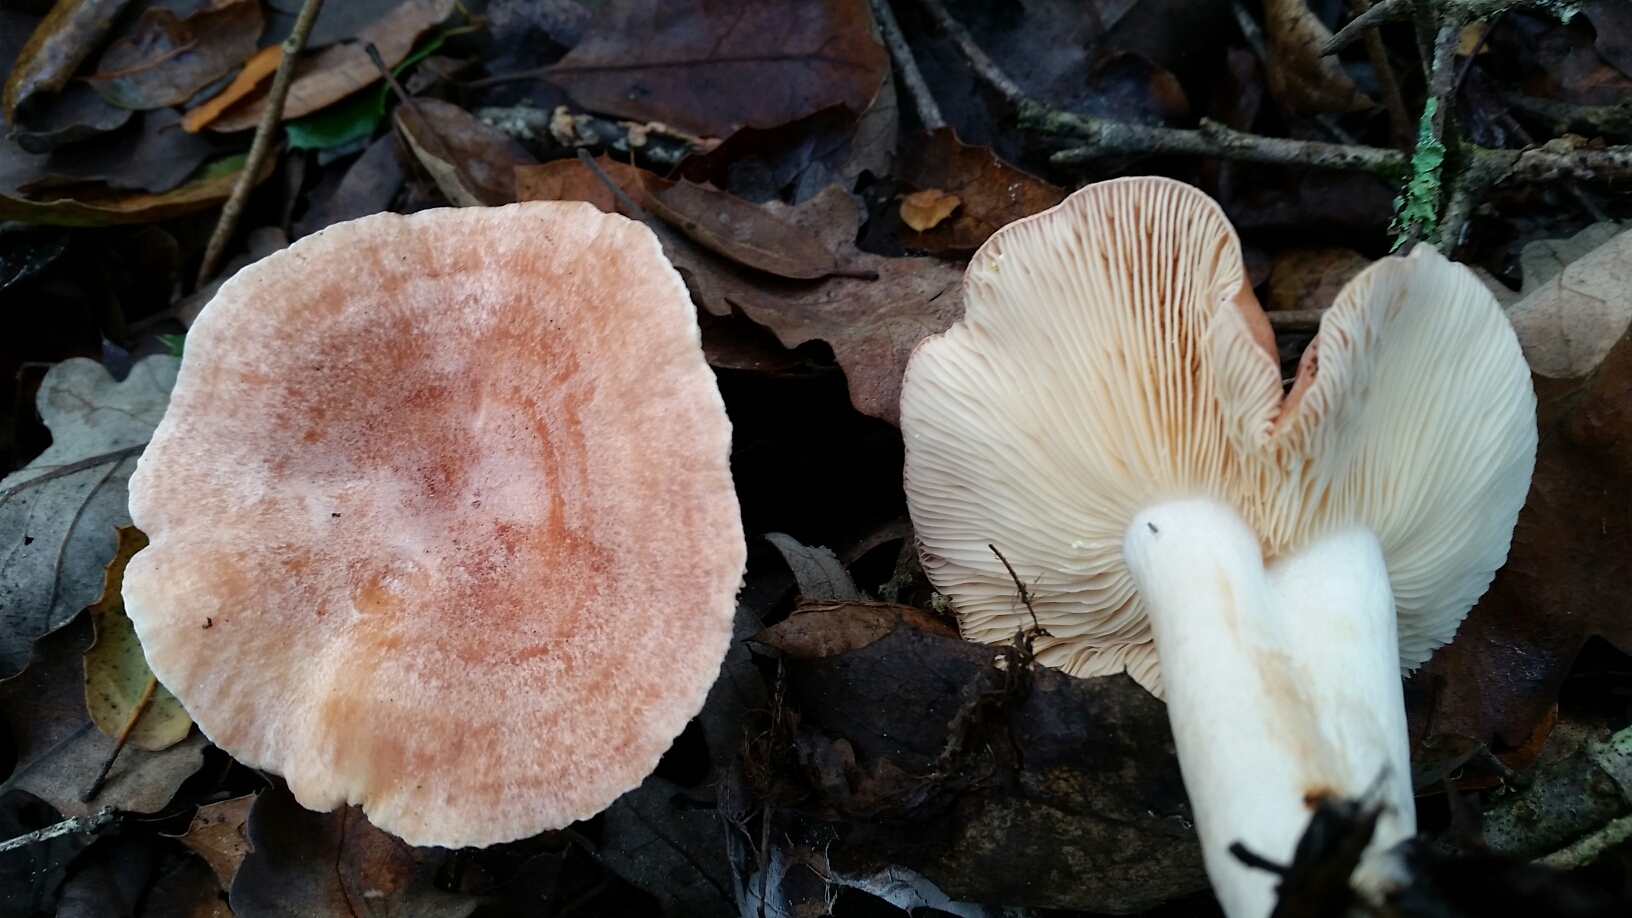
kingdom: Fungi
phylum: Basidiomycota
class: Agaricomycetes
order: Russulales
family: Russulaceae
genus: Lactarius
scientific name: Lactarius xanthogalactus
